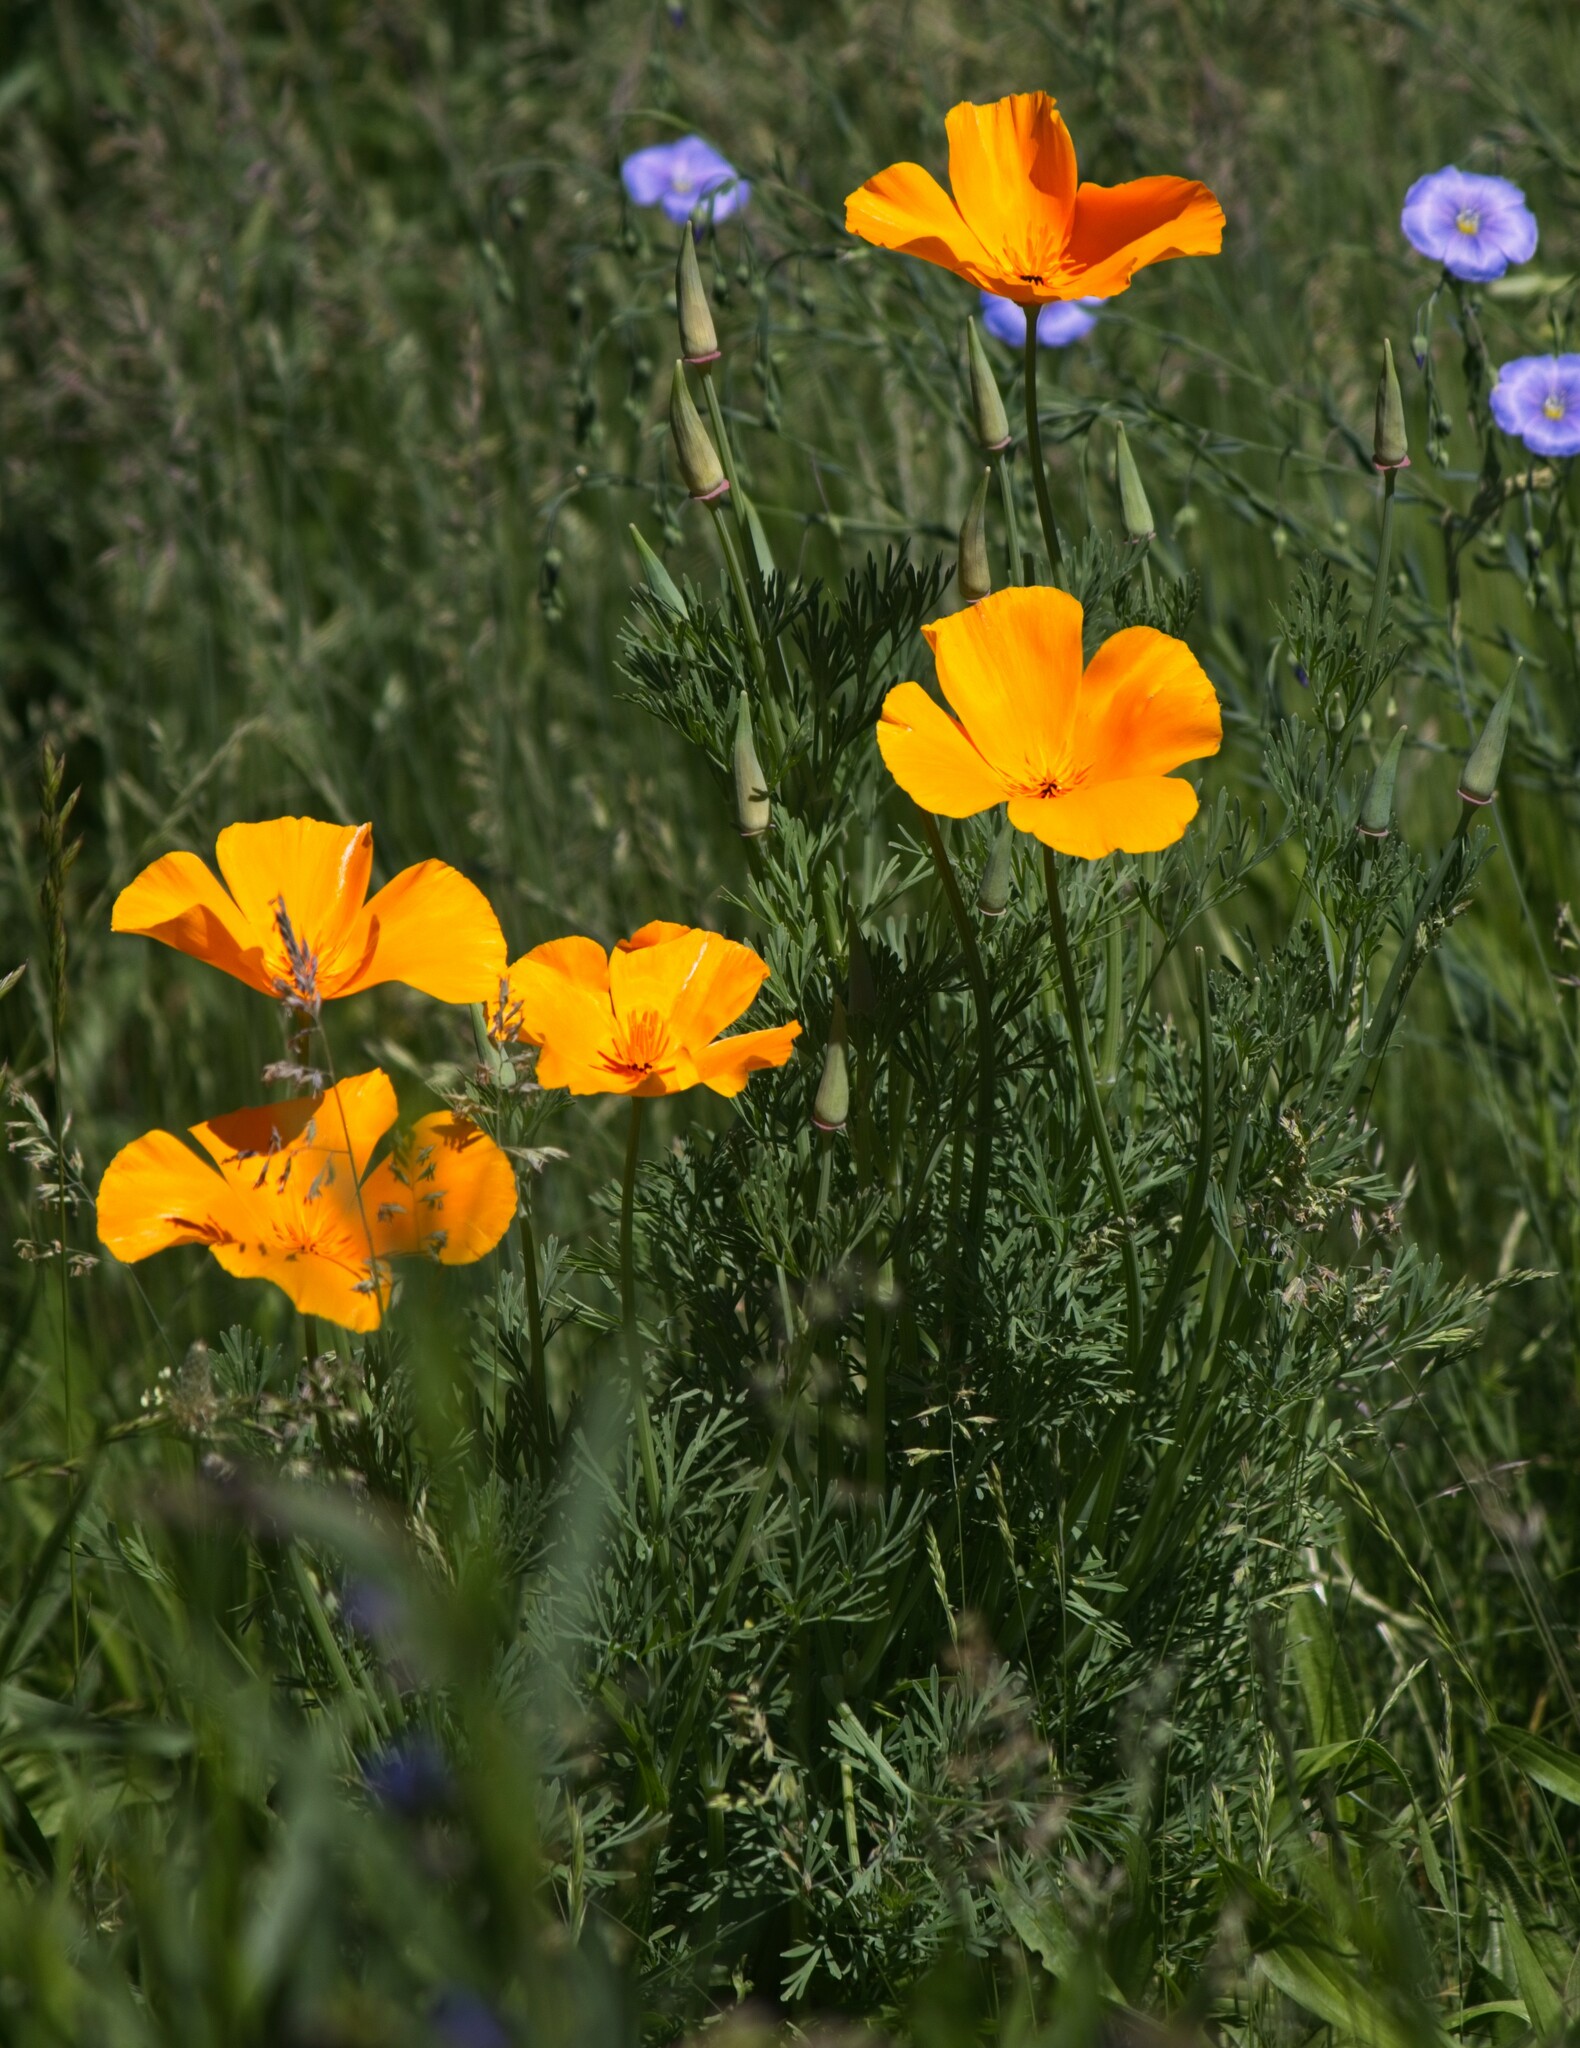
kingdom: Plantae
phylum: Tracheophyta
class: Magnoliopsida
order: Ranunculales
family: Papaveraceae
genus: Eschscholzia
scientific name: Eschscholzia californica
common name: California poppy
